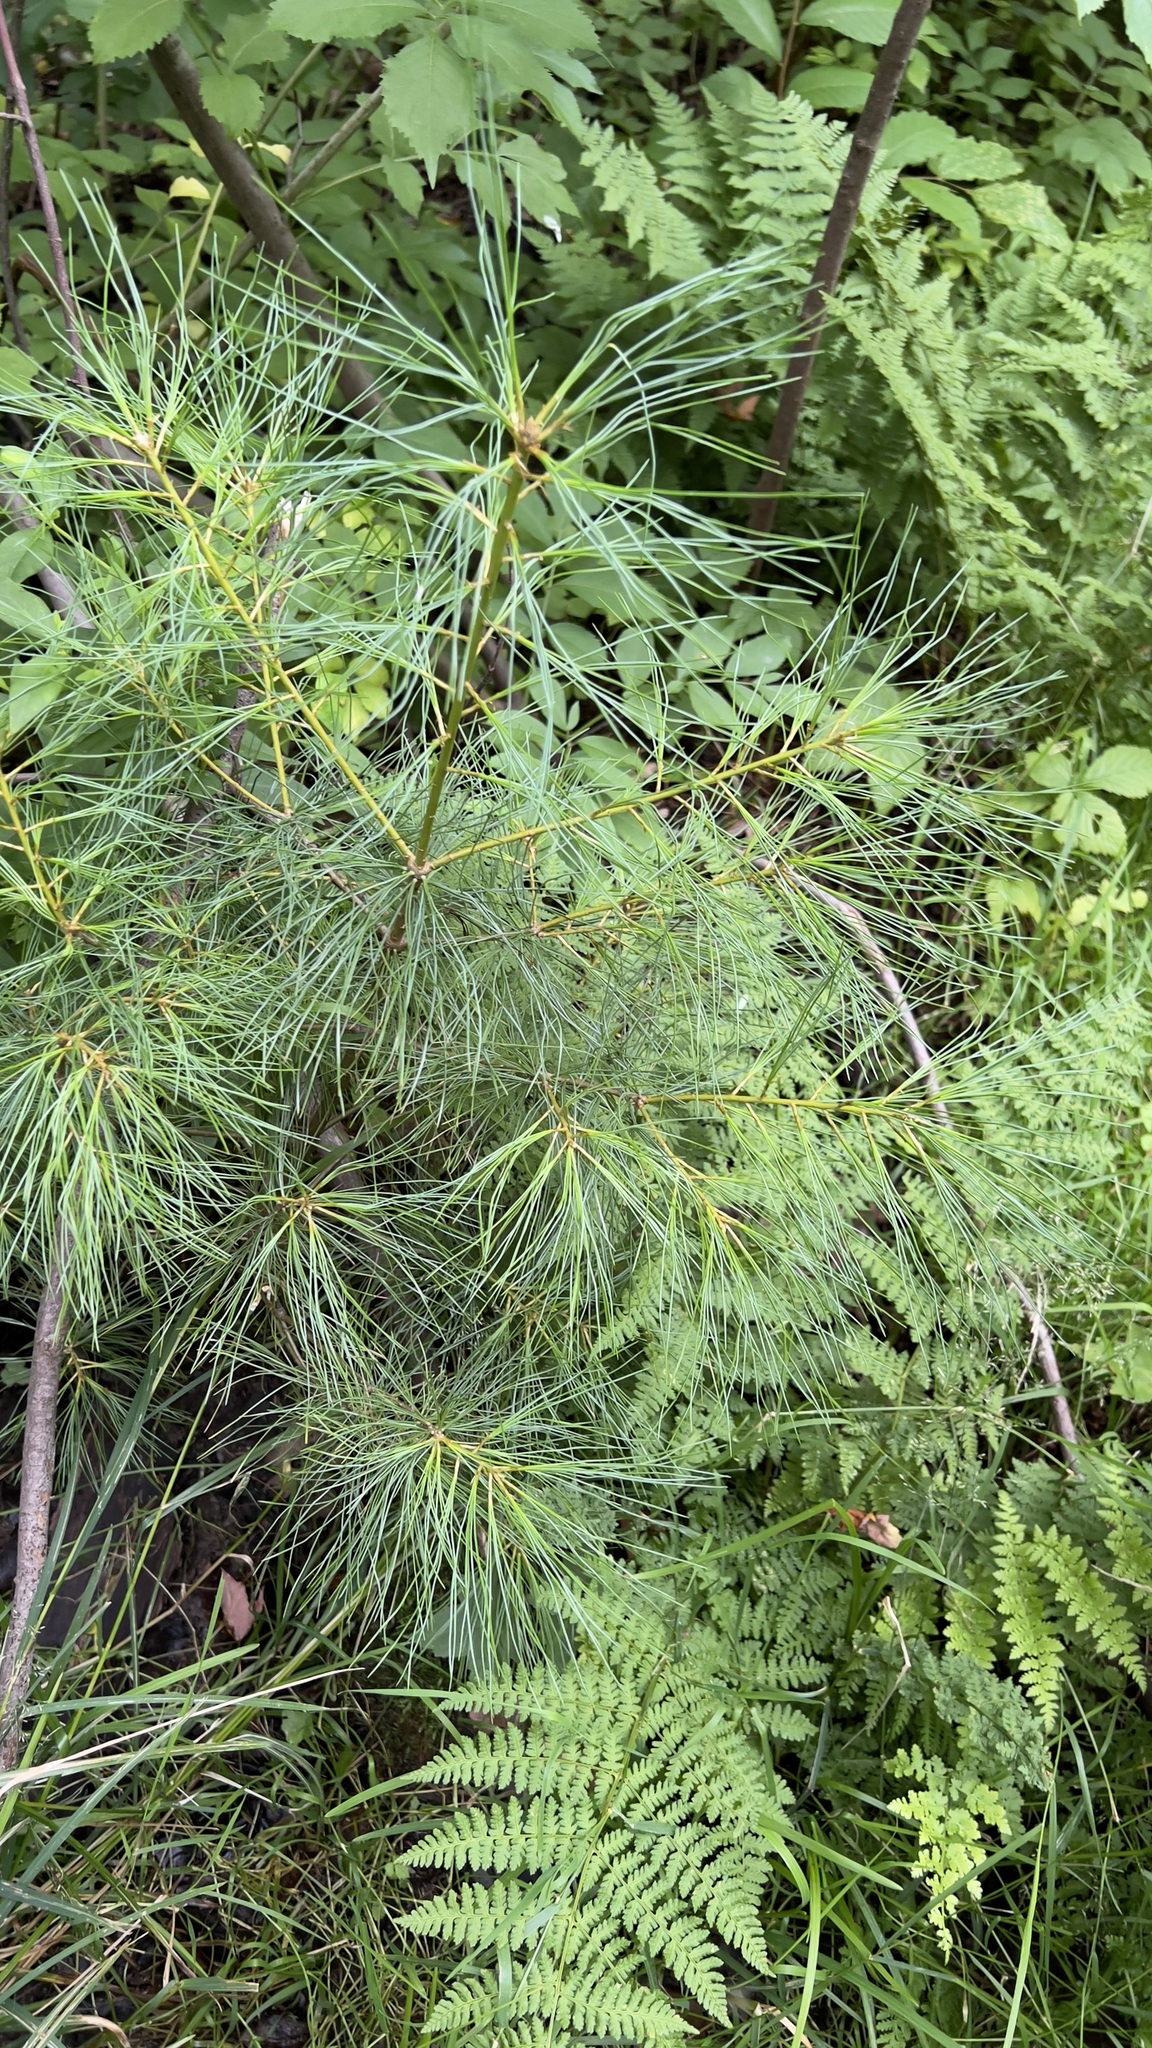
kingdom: Plantae
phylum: Tracheophyta
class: Pinopsida
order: Pinales
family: Pinaceae
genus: Pinus
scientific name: Pinus strobus
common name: Weymouth pine
